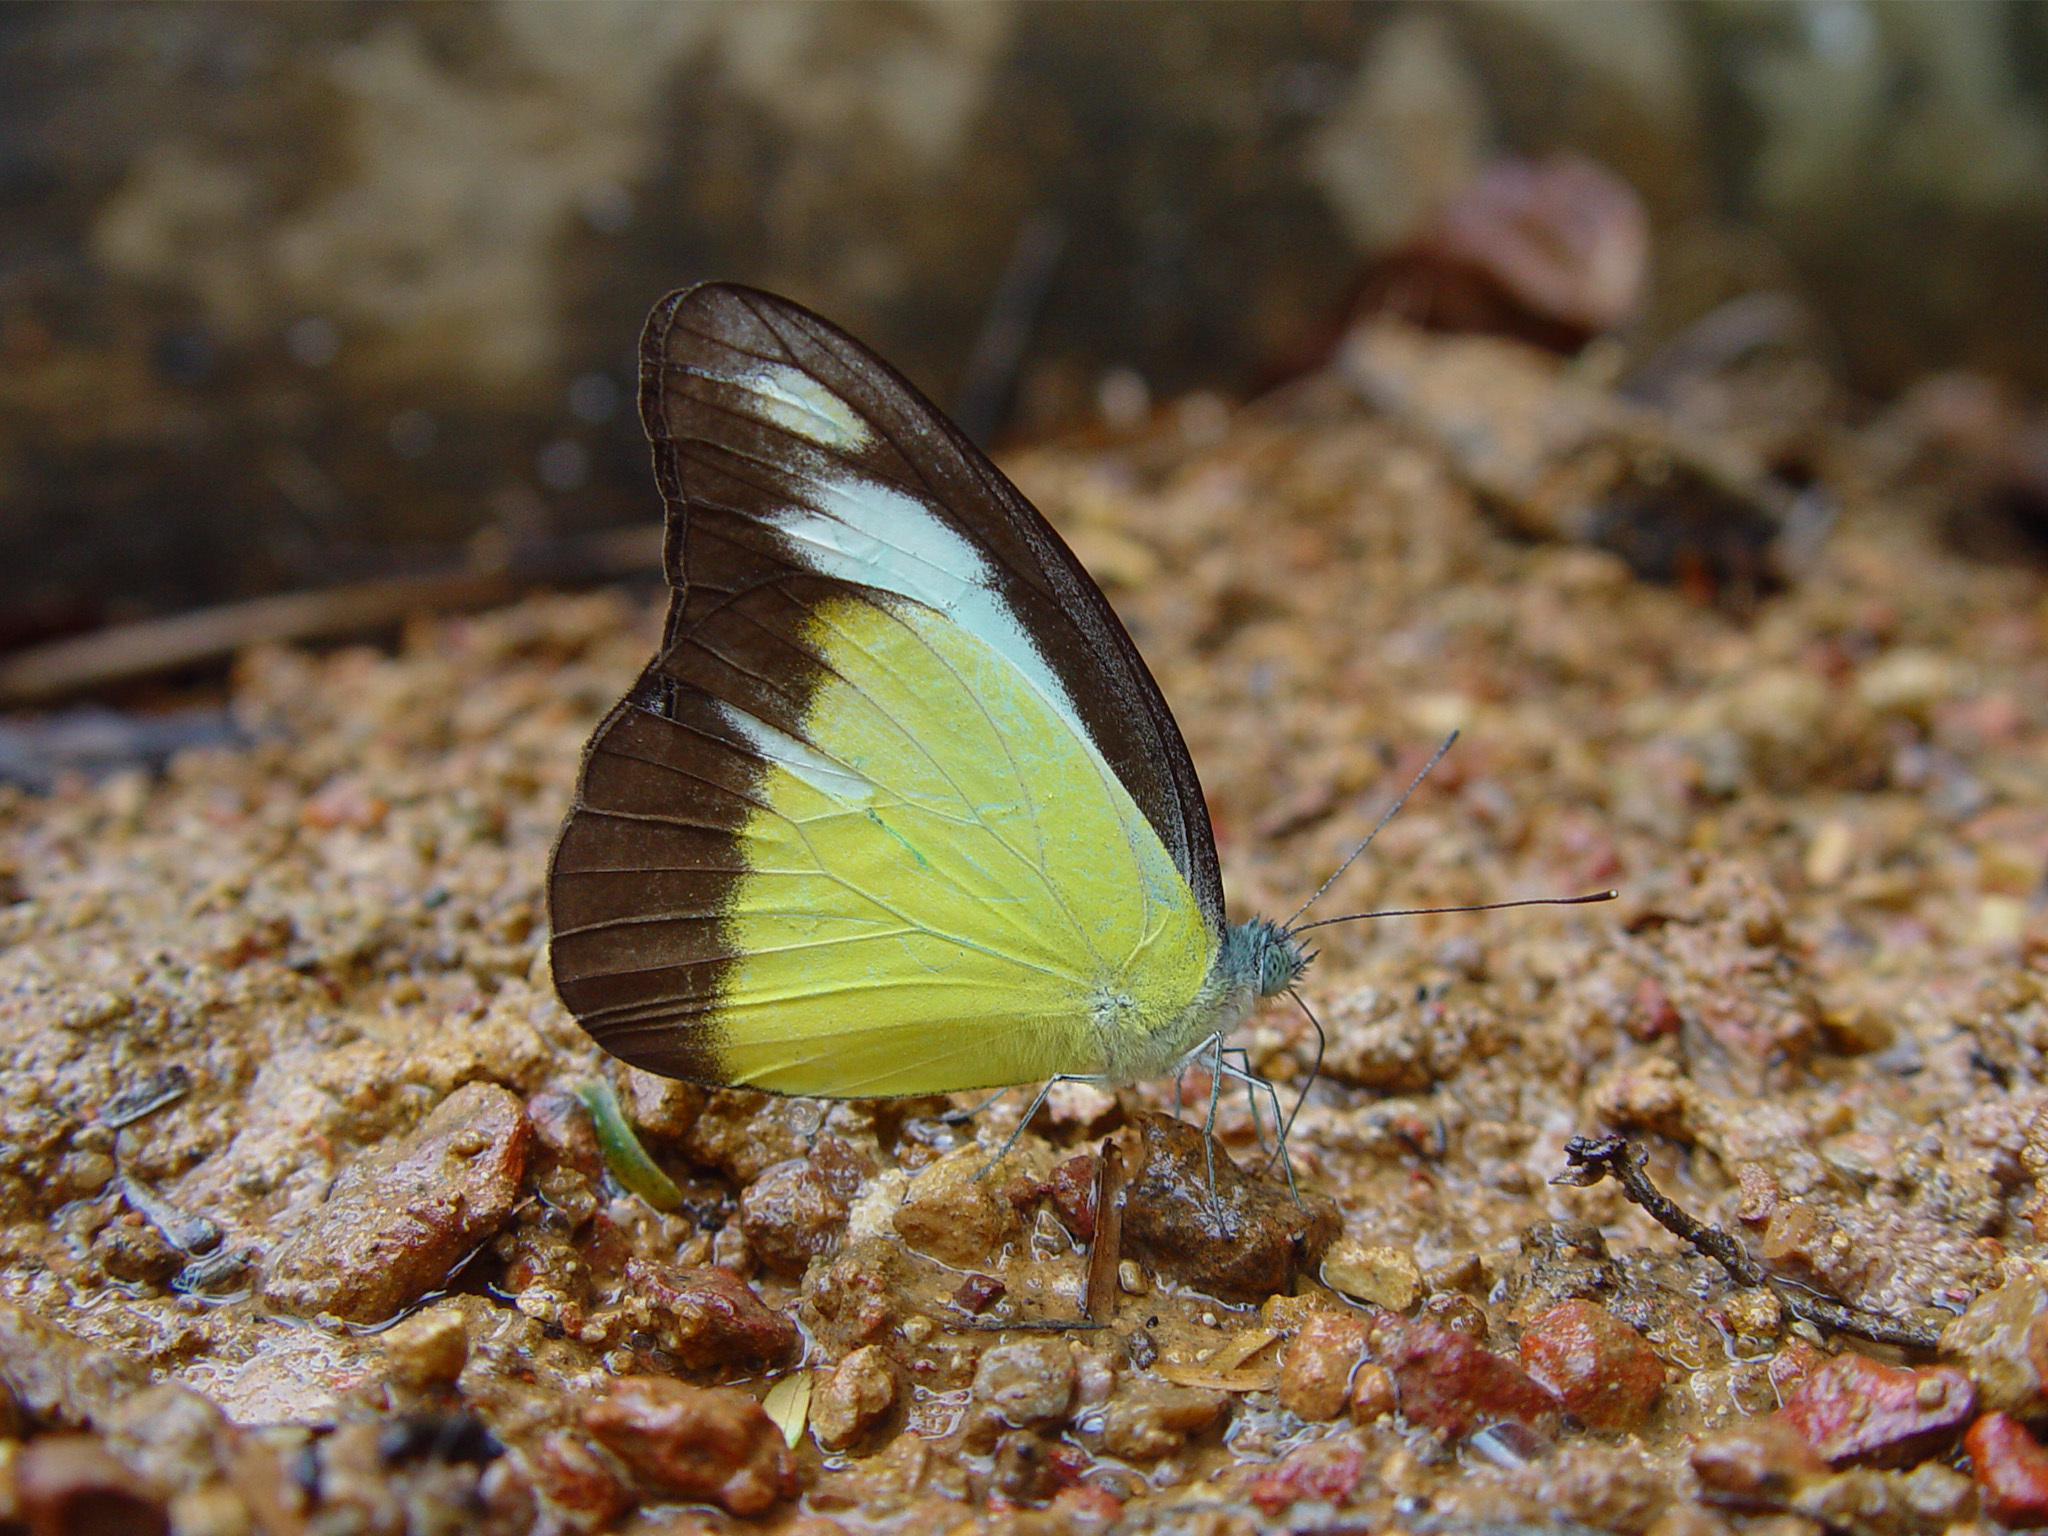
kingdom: Animalia
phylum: Arthropoda
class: Insecta
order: Lepidoptera
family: Pieridae
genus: Appias
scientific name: Appias lyncida
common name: Chocolate albatross
